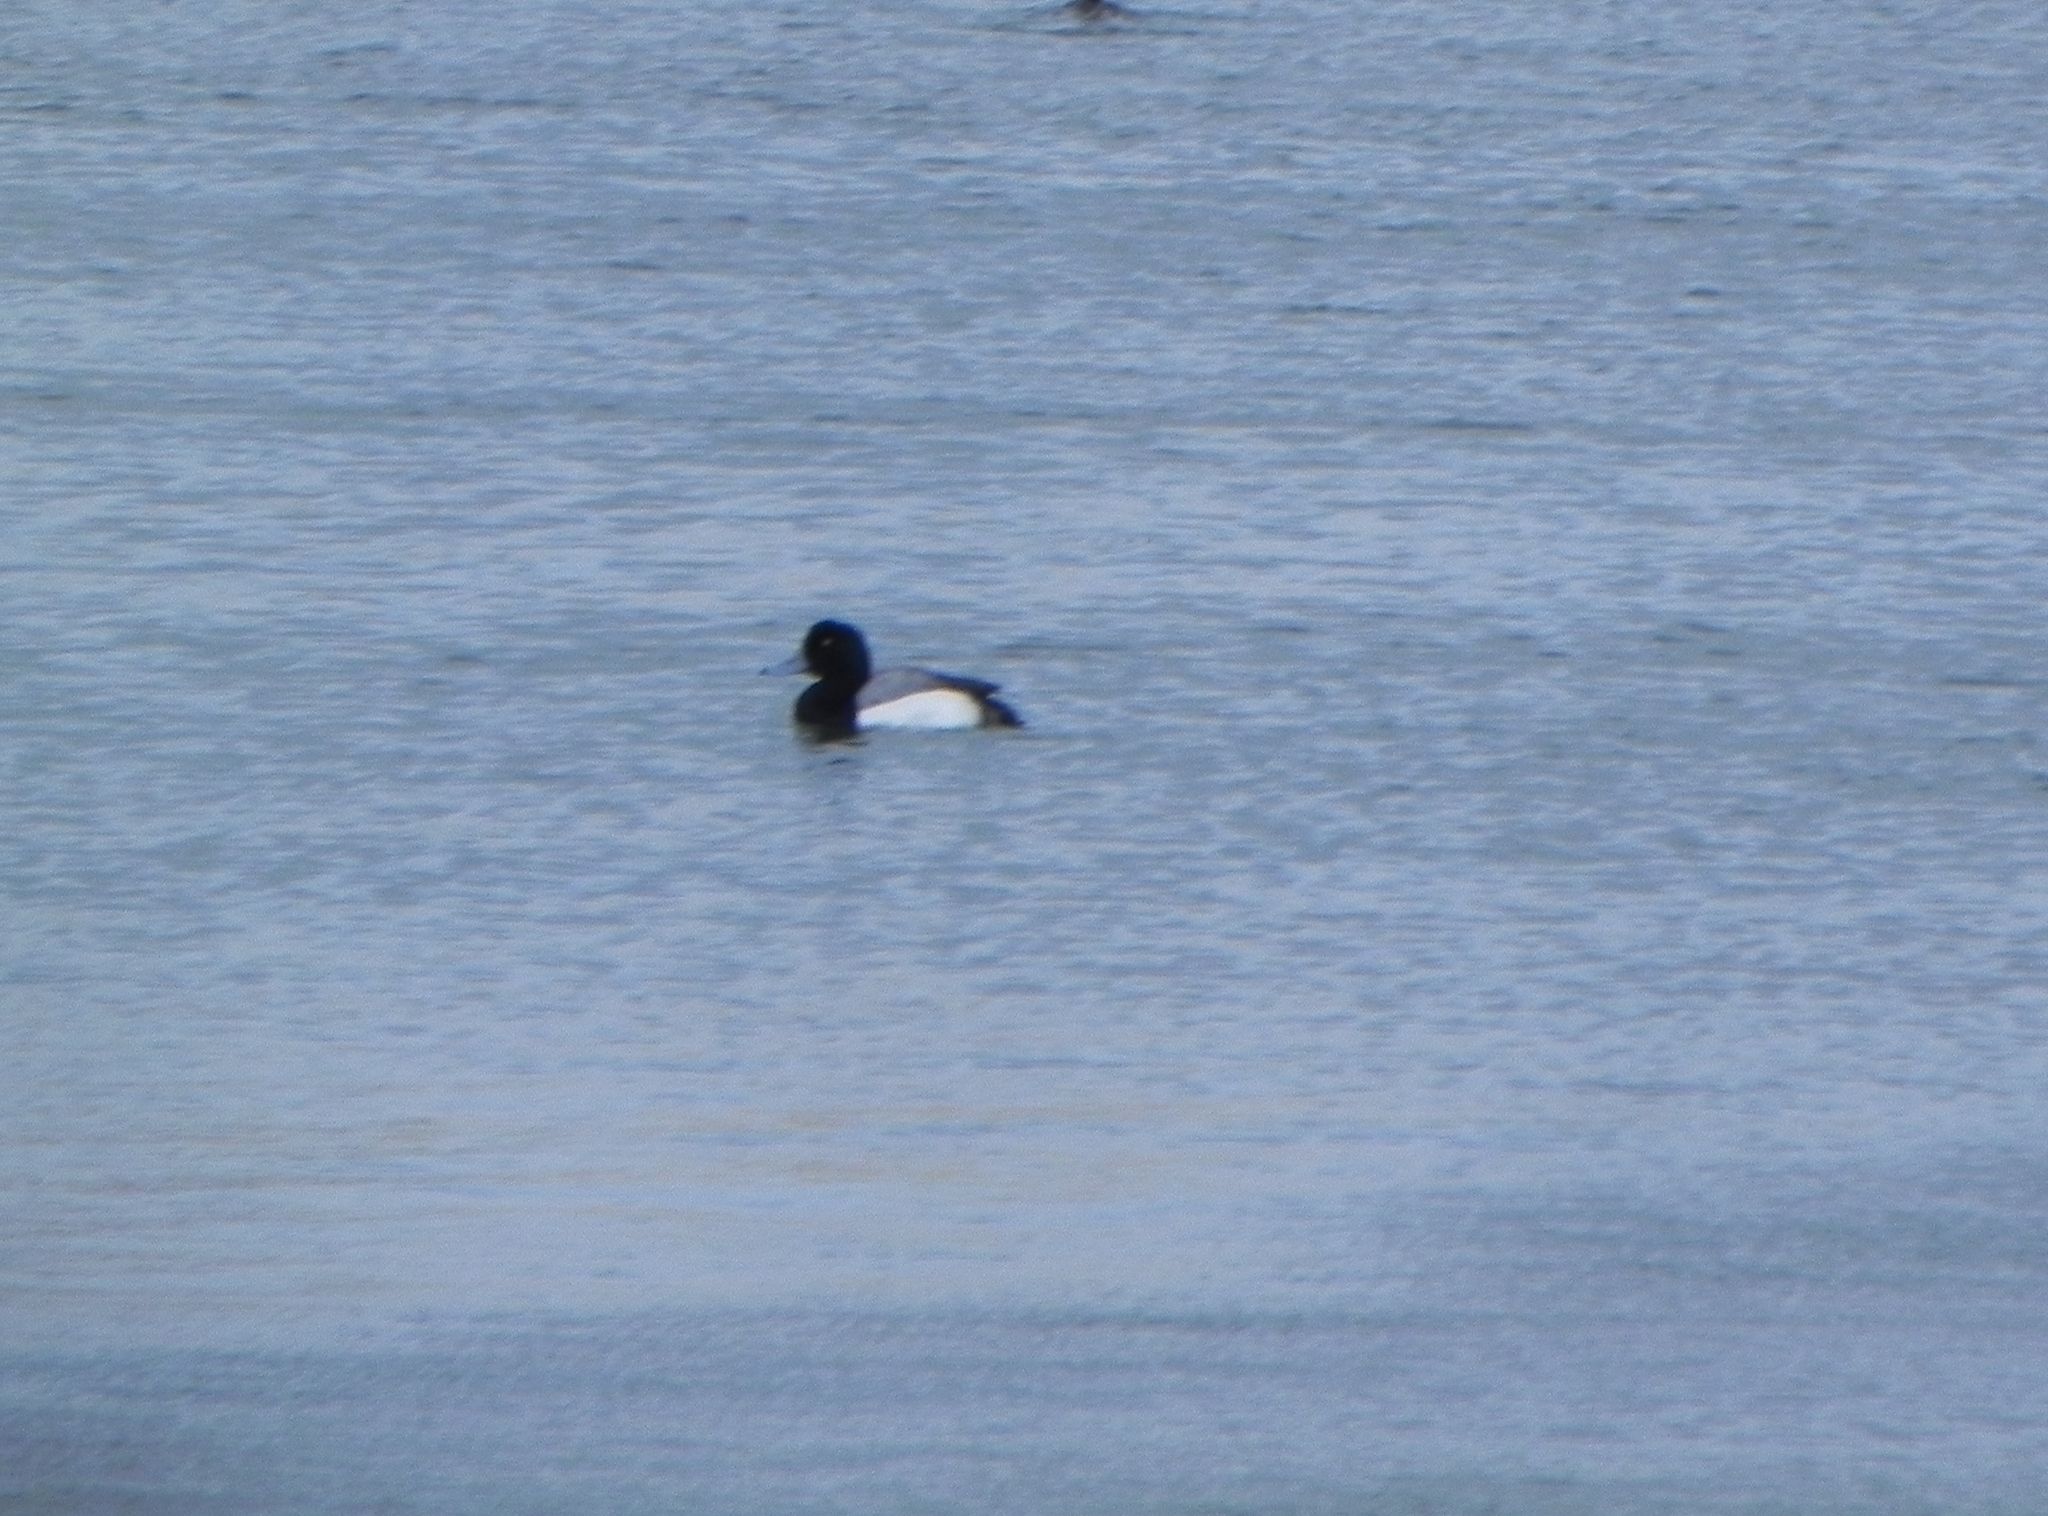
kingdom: Animalia
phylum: Chordata
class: Aves
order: Anseriformes
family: Anatidae
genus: Aythya
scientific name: Aythya marila
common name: Greater scaup
